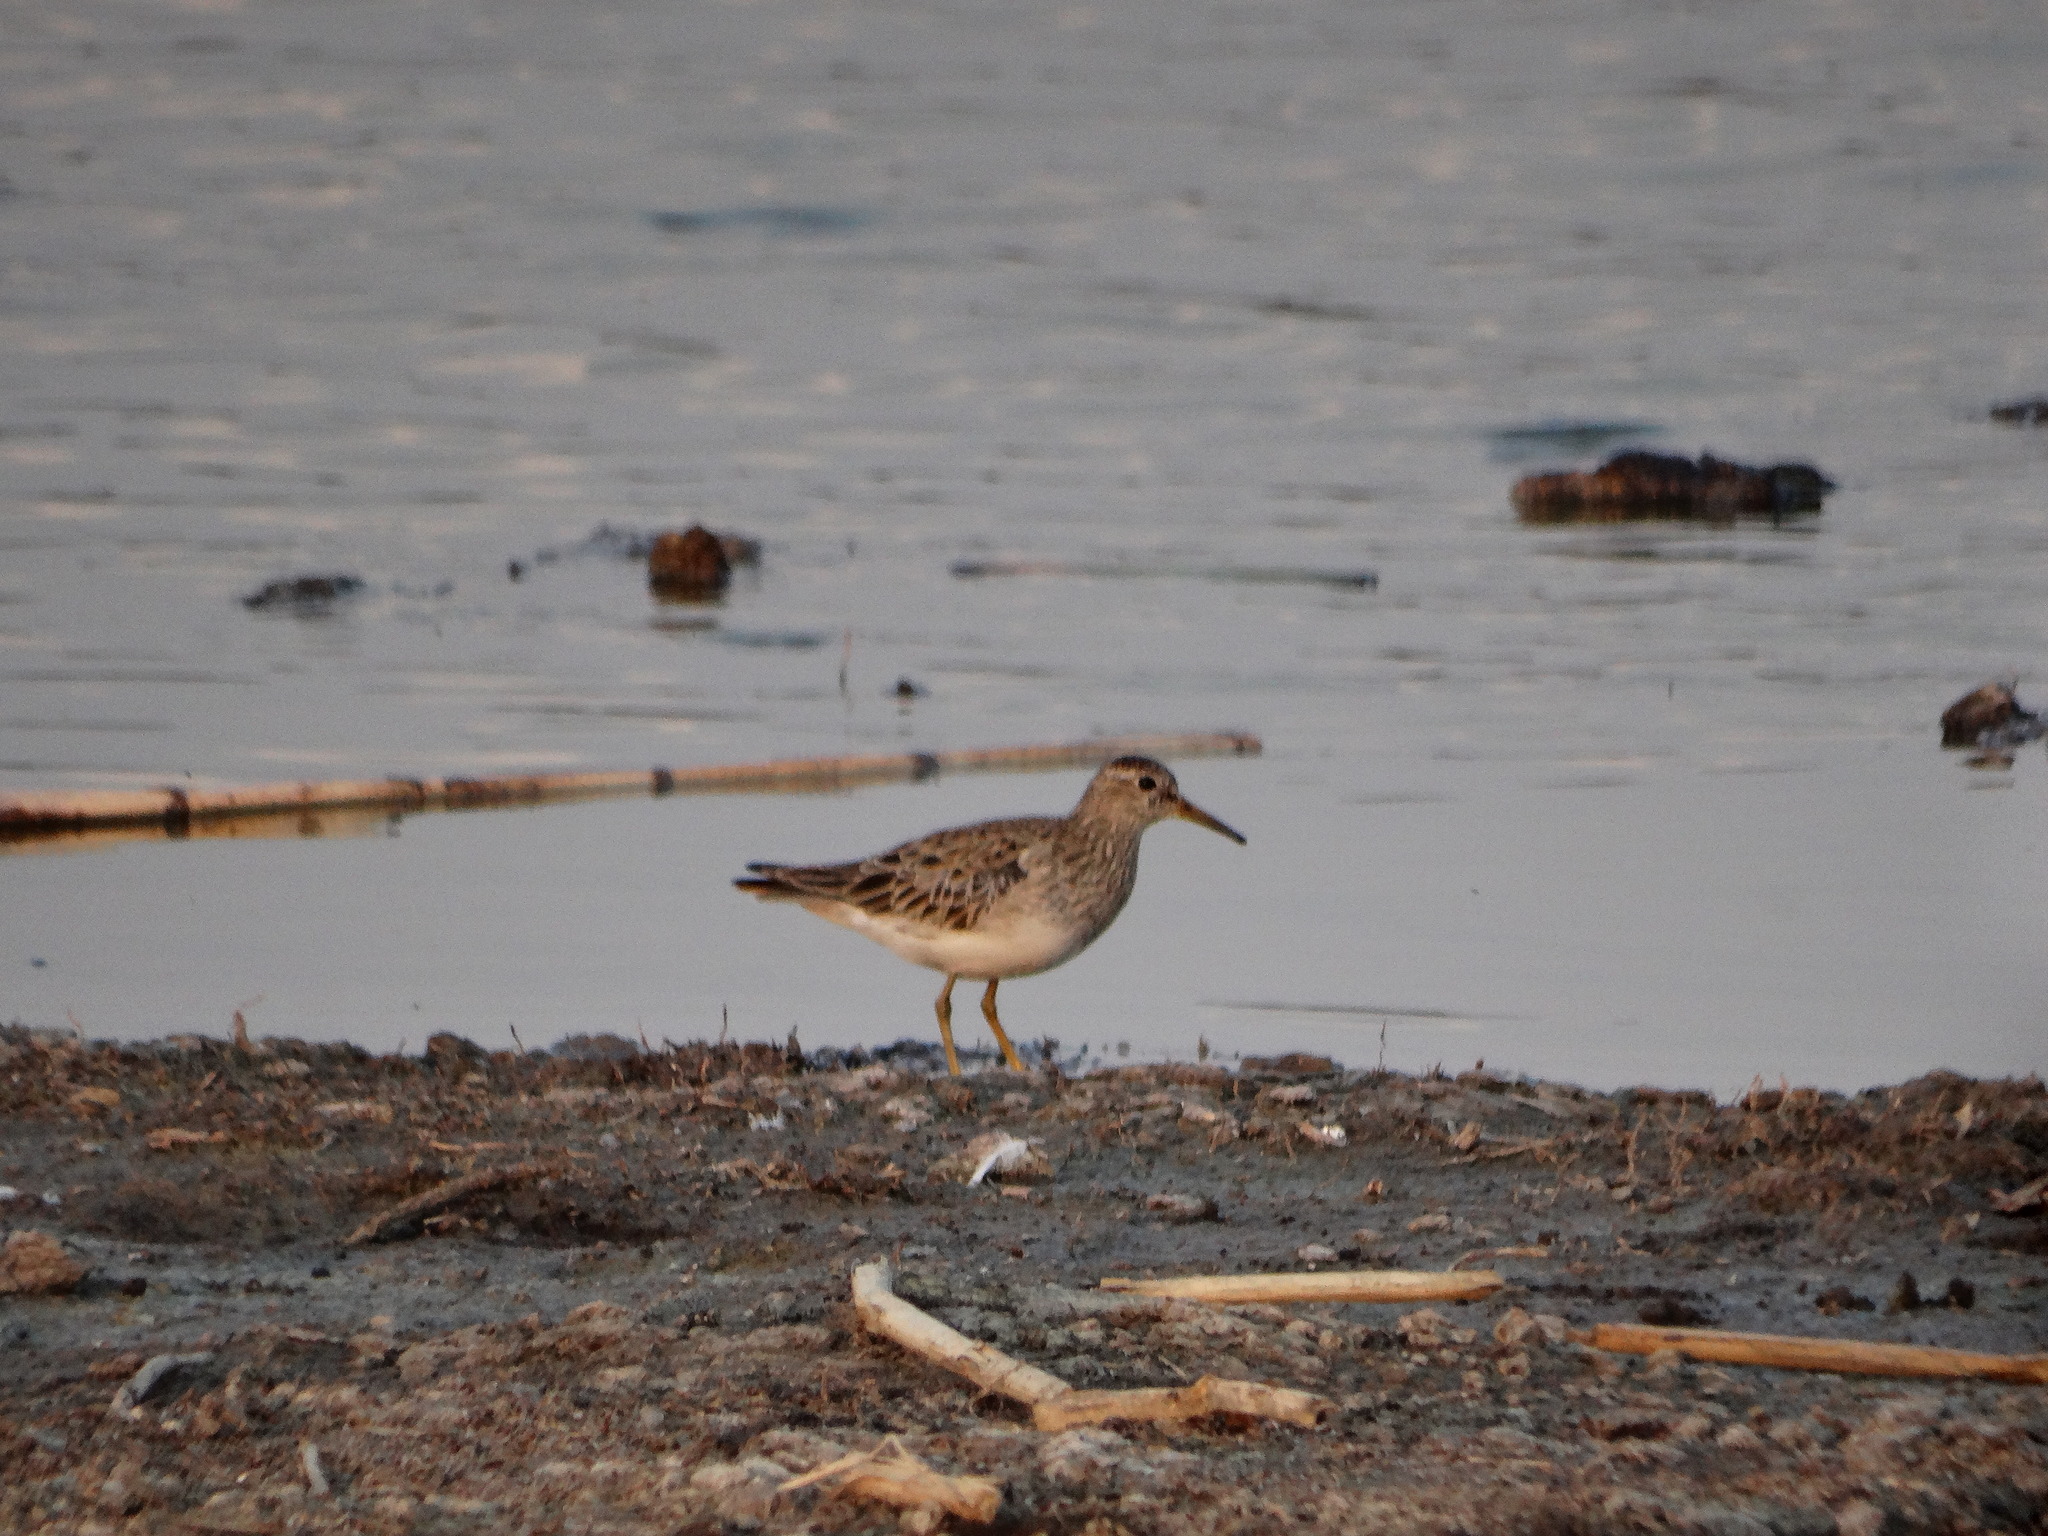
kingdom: Animalia
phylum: Chordata
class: Aves
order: Charadriiformes
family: Scolopacidae
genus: Calidris
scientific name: Calidris melanotos
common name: Pectoral sandpiper
